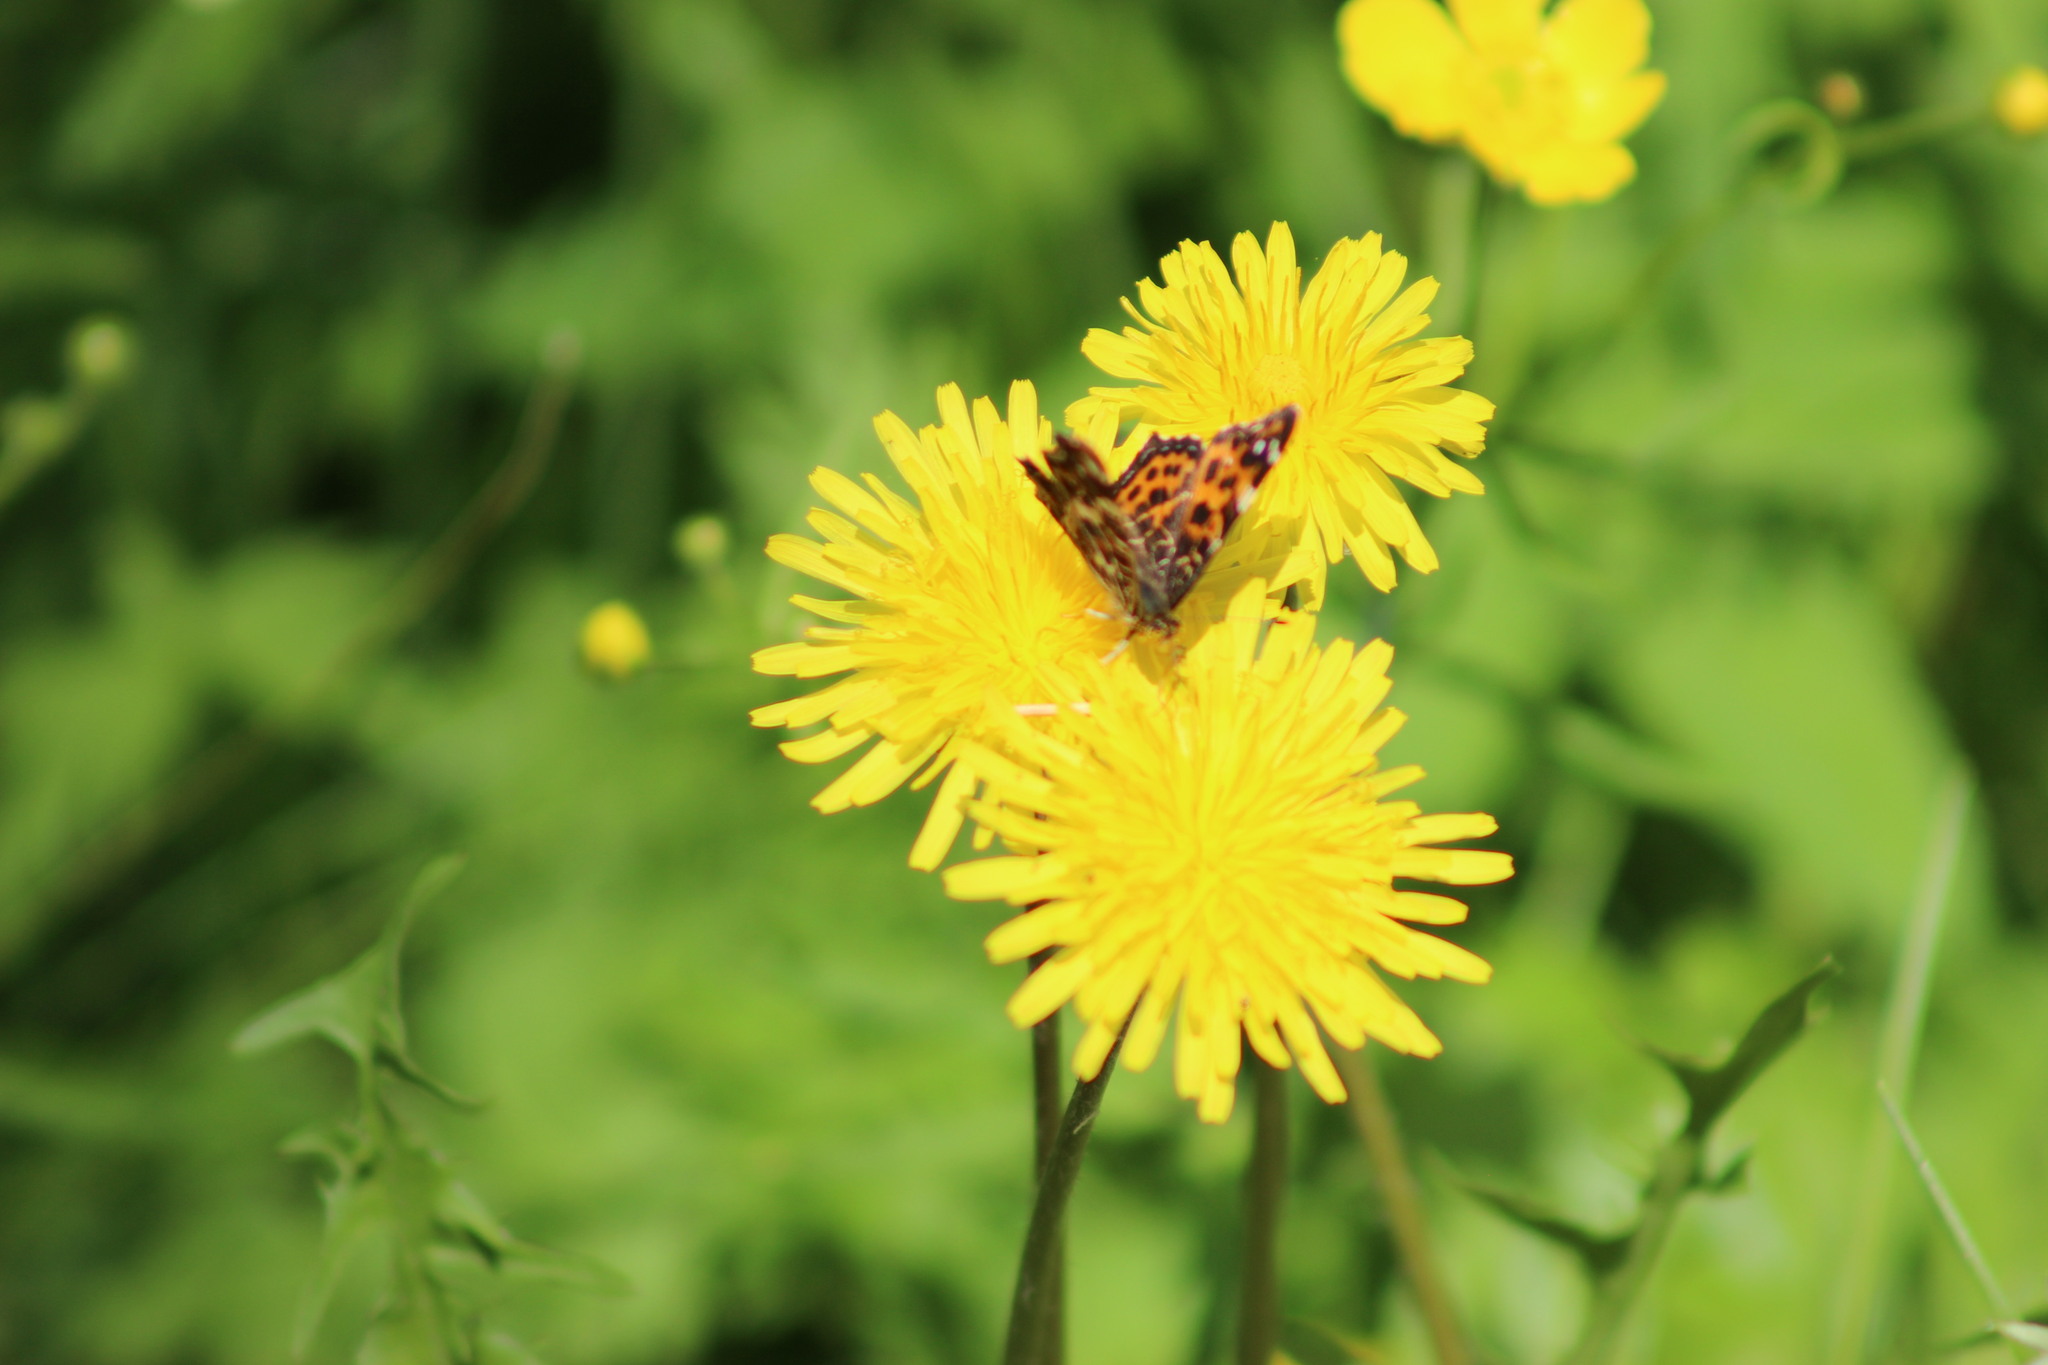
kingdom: Animalia
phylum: Arthropoda
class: Insecta
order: Lepidoptera
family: Nymphalidae
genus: Araschnia
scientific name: Araschnia levana
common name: Map butterfly
